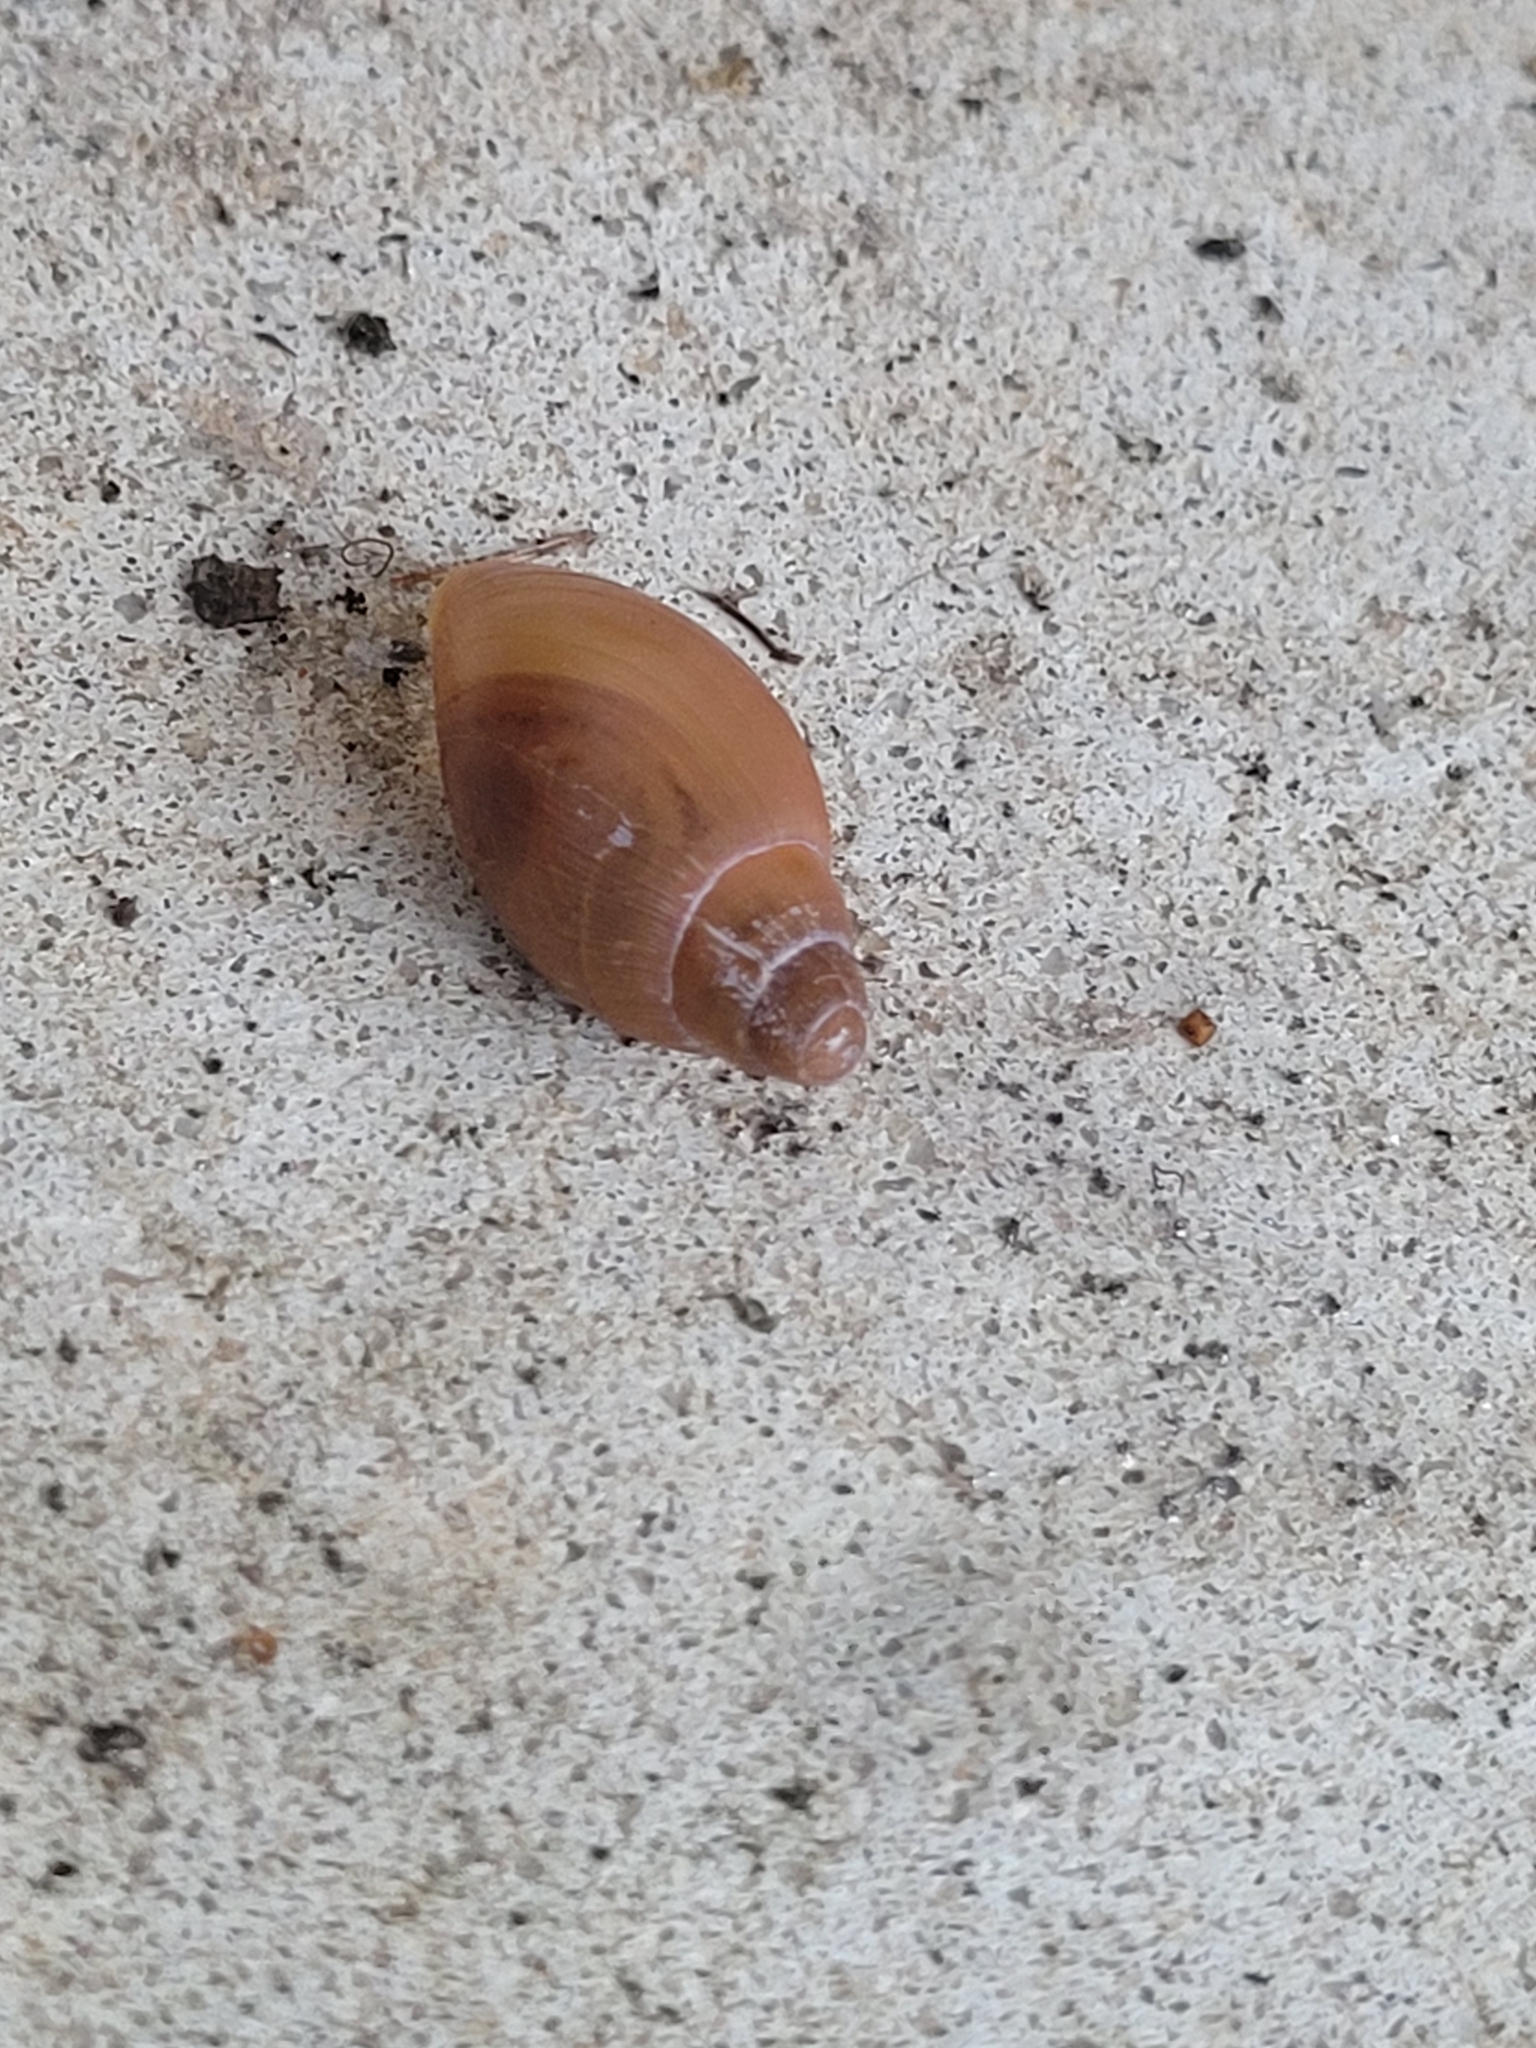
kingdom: Animalia
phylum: Mollusca
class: Gastropoda
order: Stylommatophora
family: Spiraxidae
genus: Euglandina
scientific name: Euglandina rosea
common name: Rosy wolfsnail
